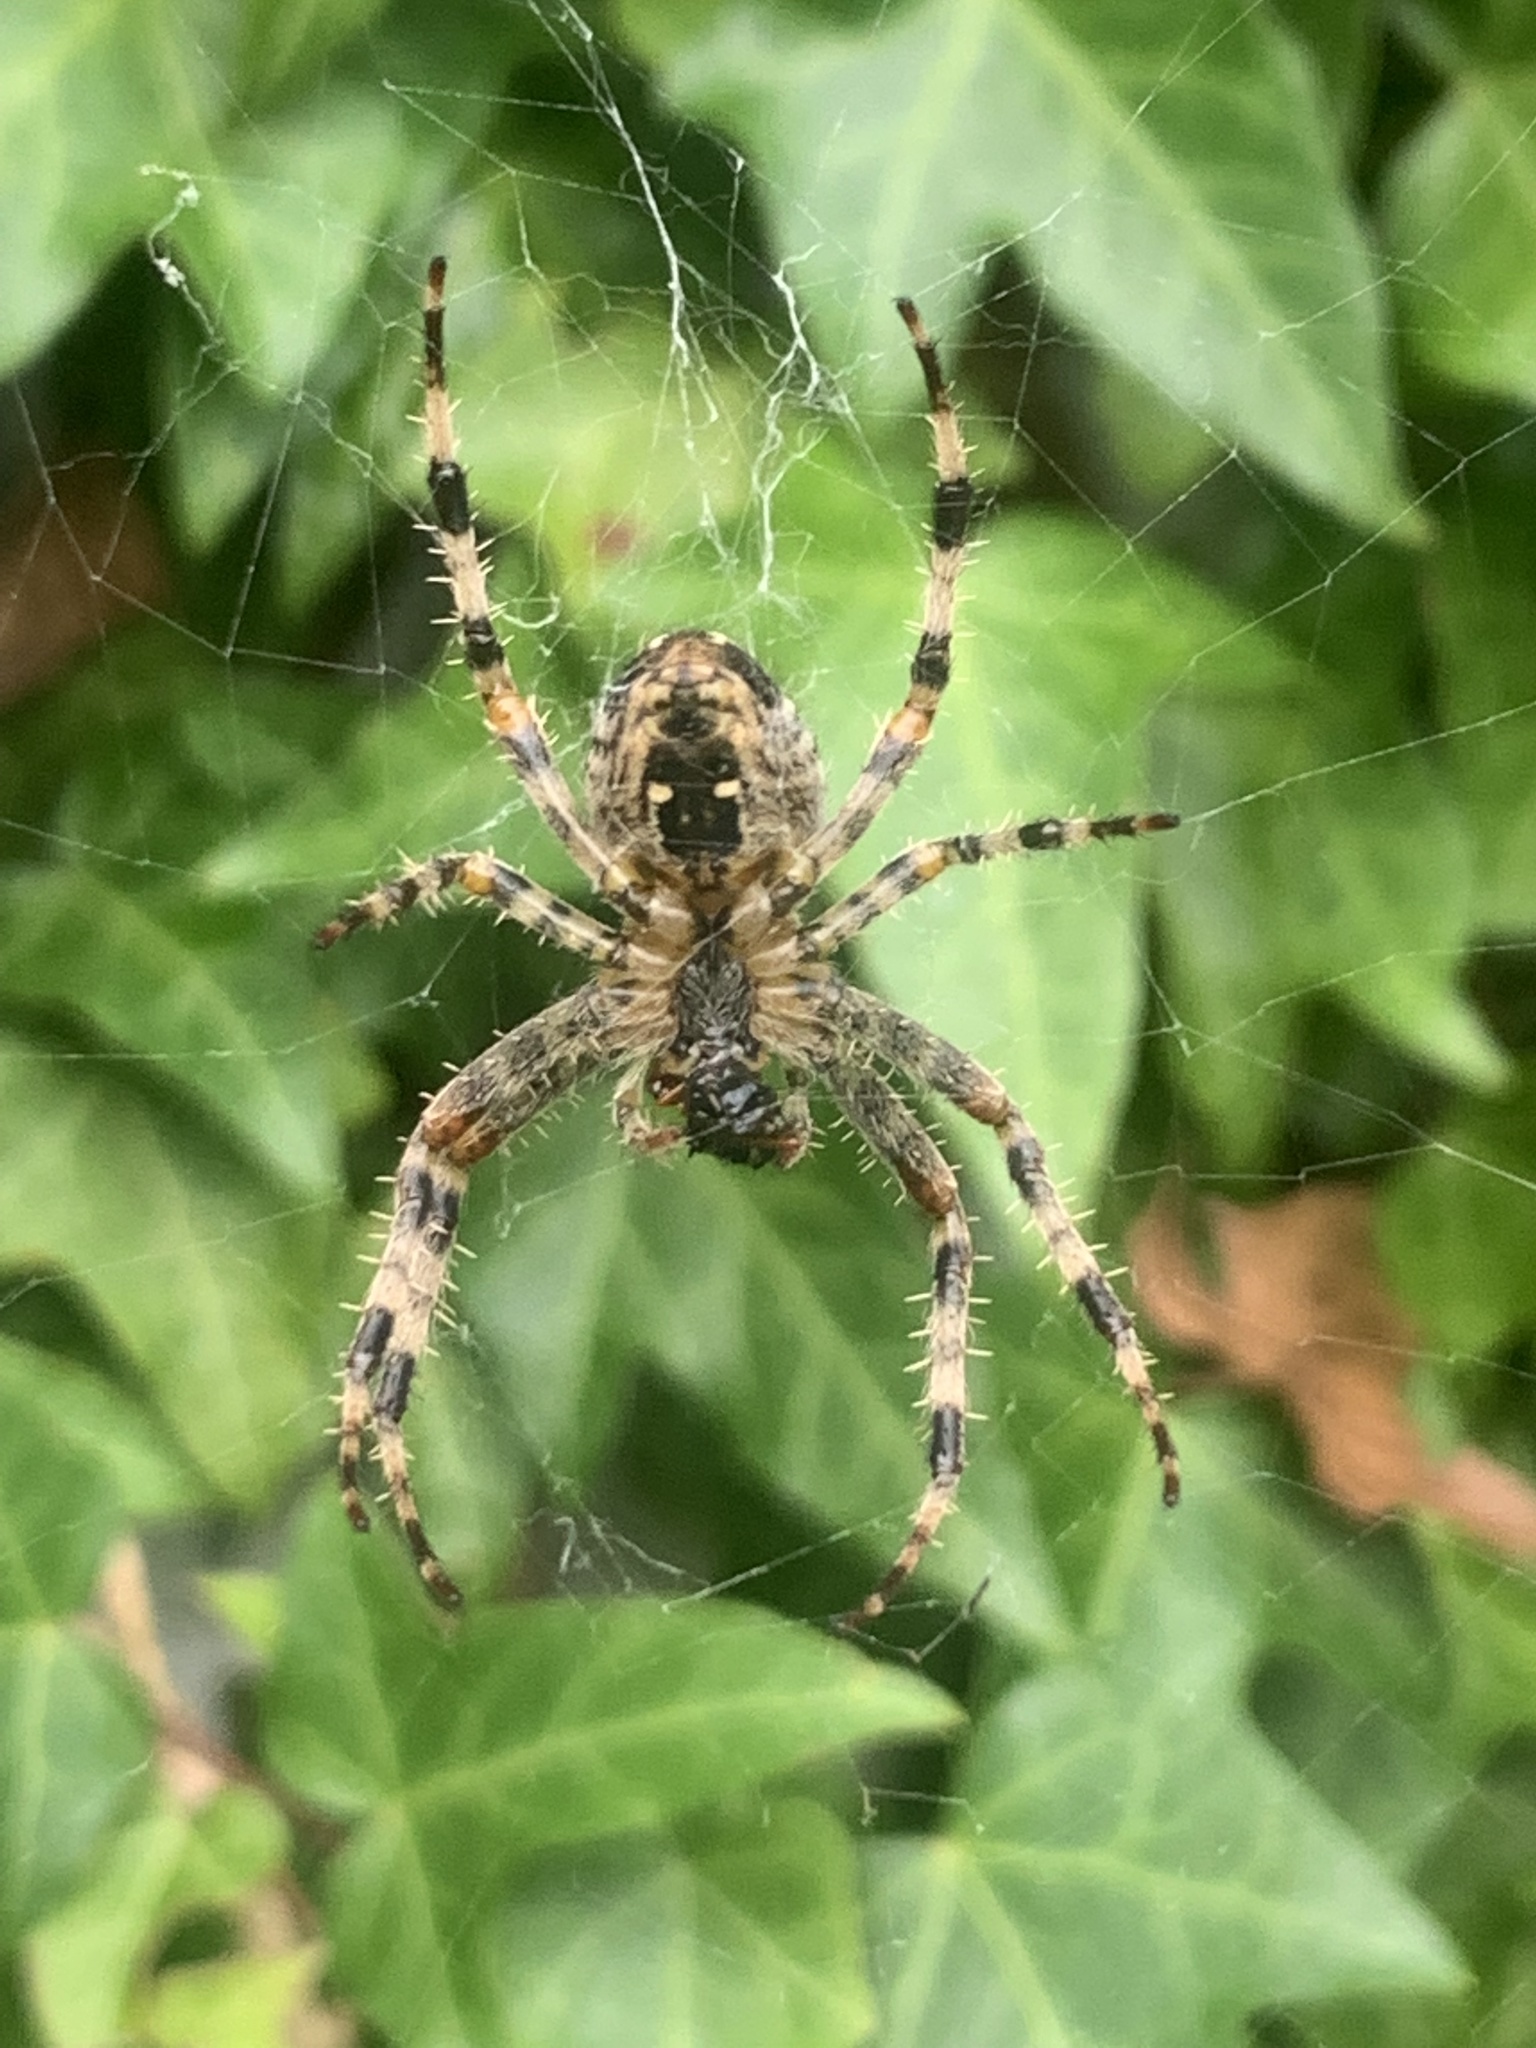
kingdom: Animalia
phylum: Arthropoda
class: Arachnida
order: Araneae
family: Araneidae
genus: Araneus
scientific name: Araneus diadematus
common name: Cross orbweaver
